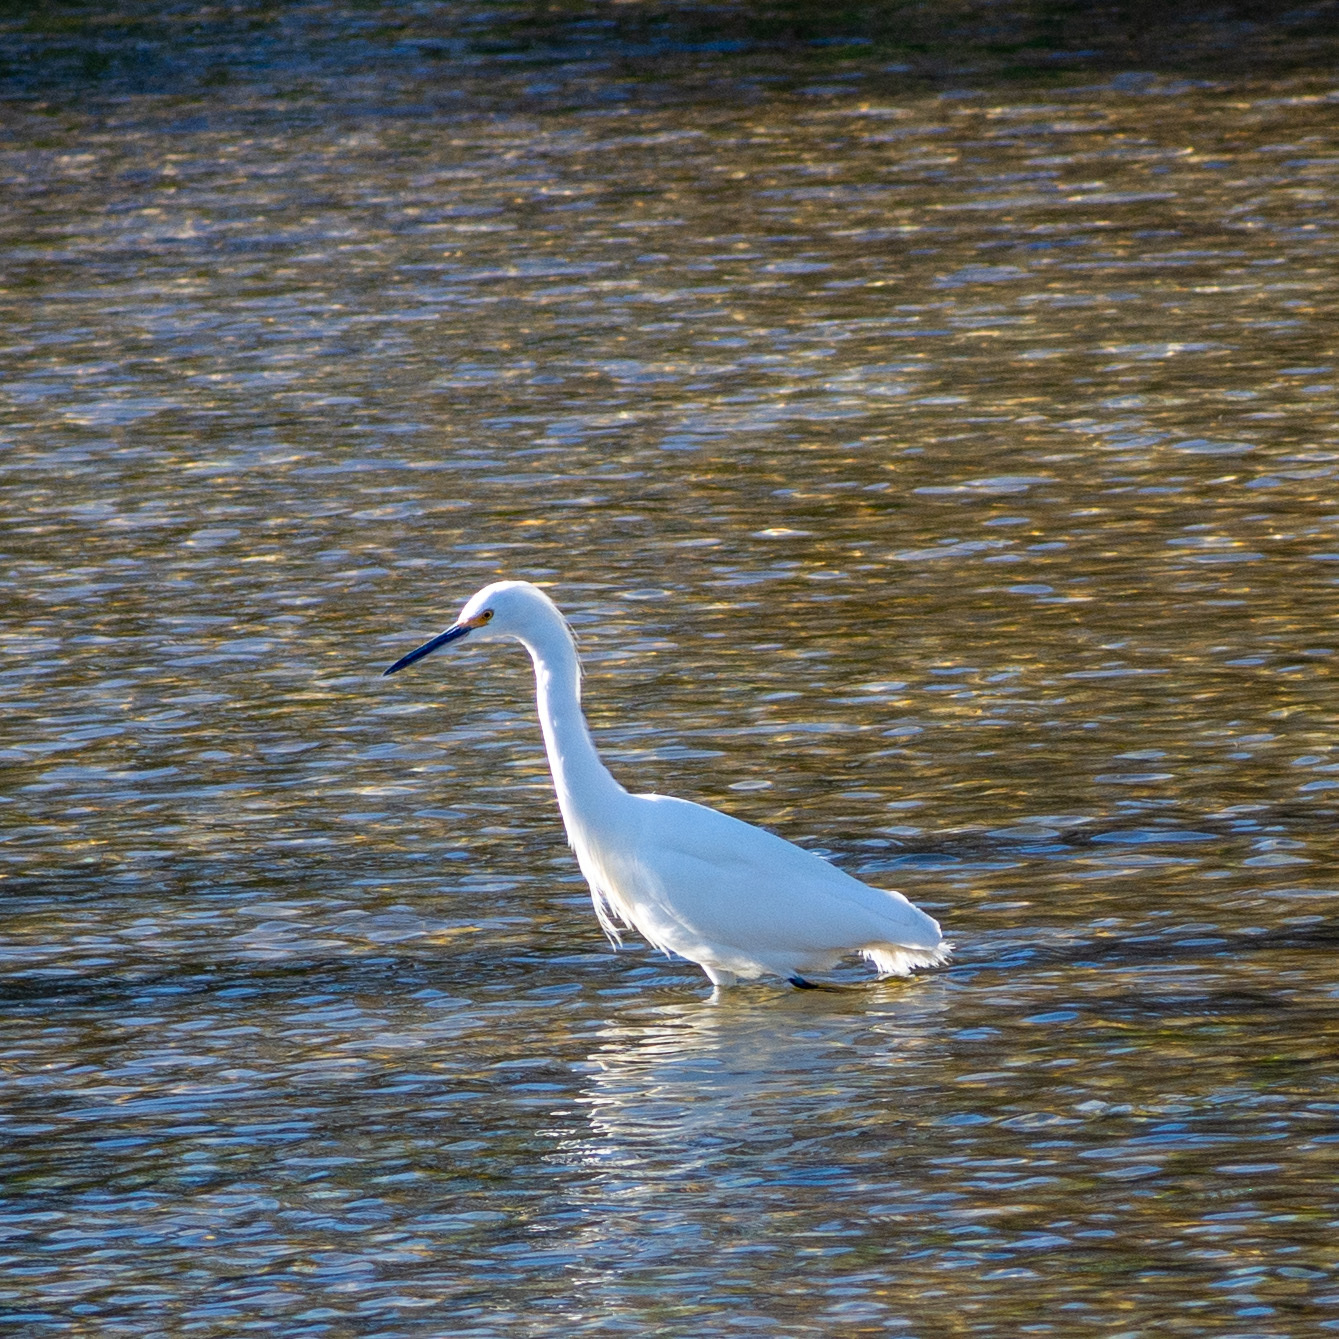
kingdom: Animalia
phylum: Chordata
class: Aves
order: Pelecaniformes
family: Ardeidae
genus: Egretta
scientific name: Egretta thula
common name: Snowy egret
